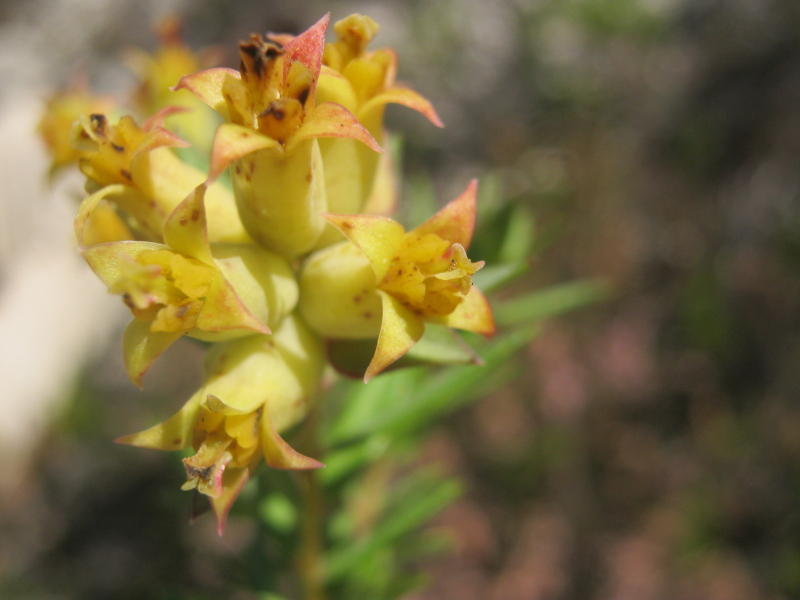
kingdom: Plantae
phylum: Tracheophyta
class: Magnoliopsida
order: Myrtales
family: Penaeaceae
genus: Penaea
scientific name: Penaea acutifolia
